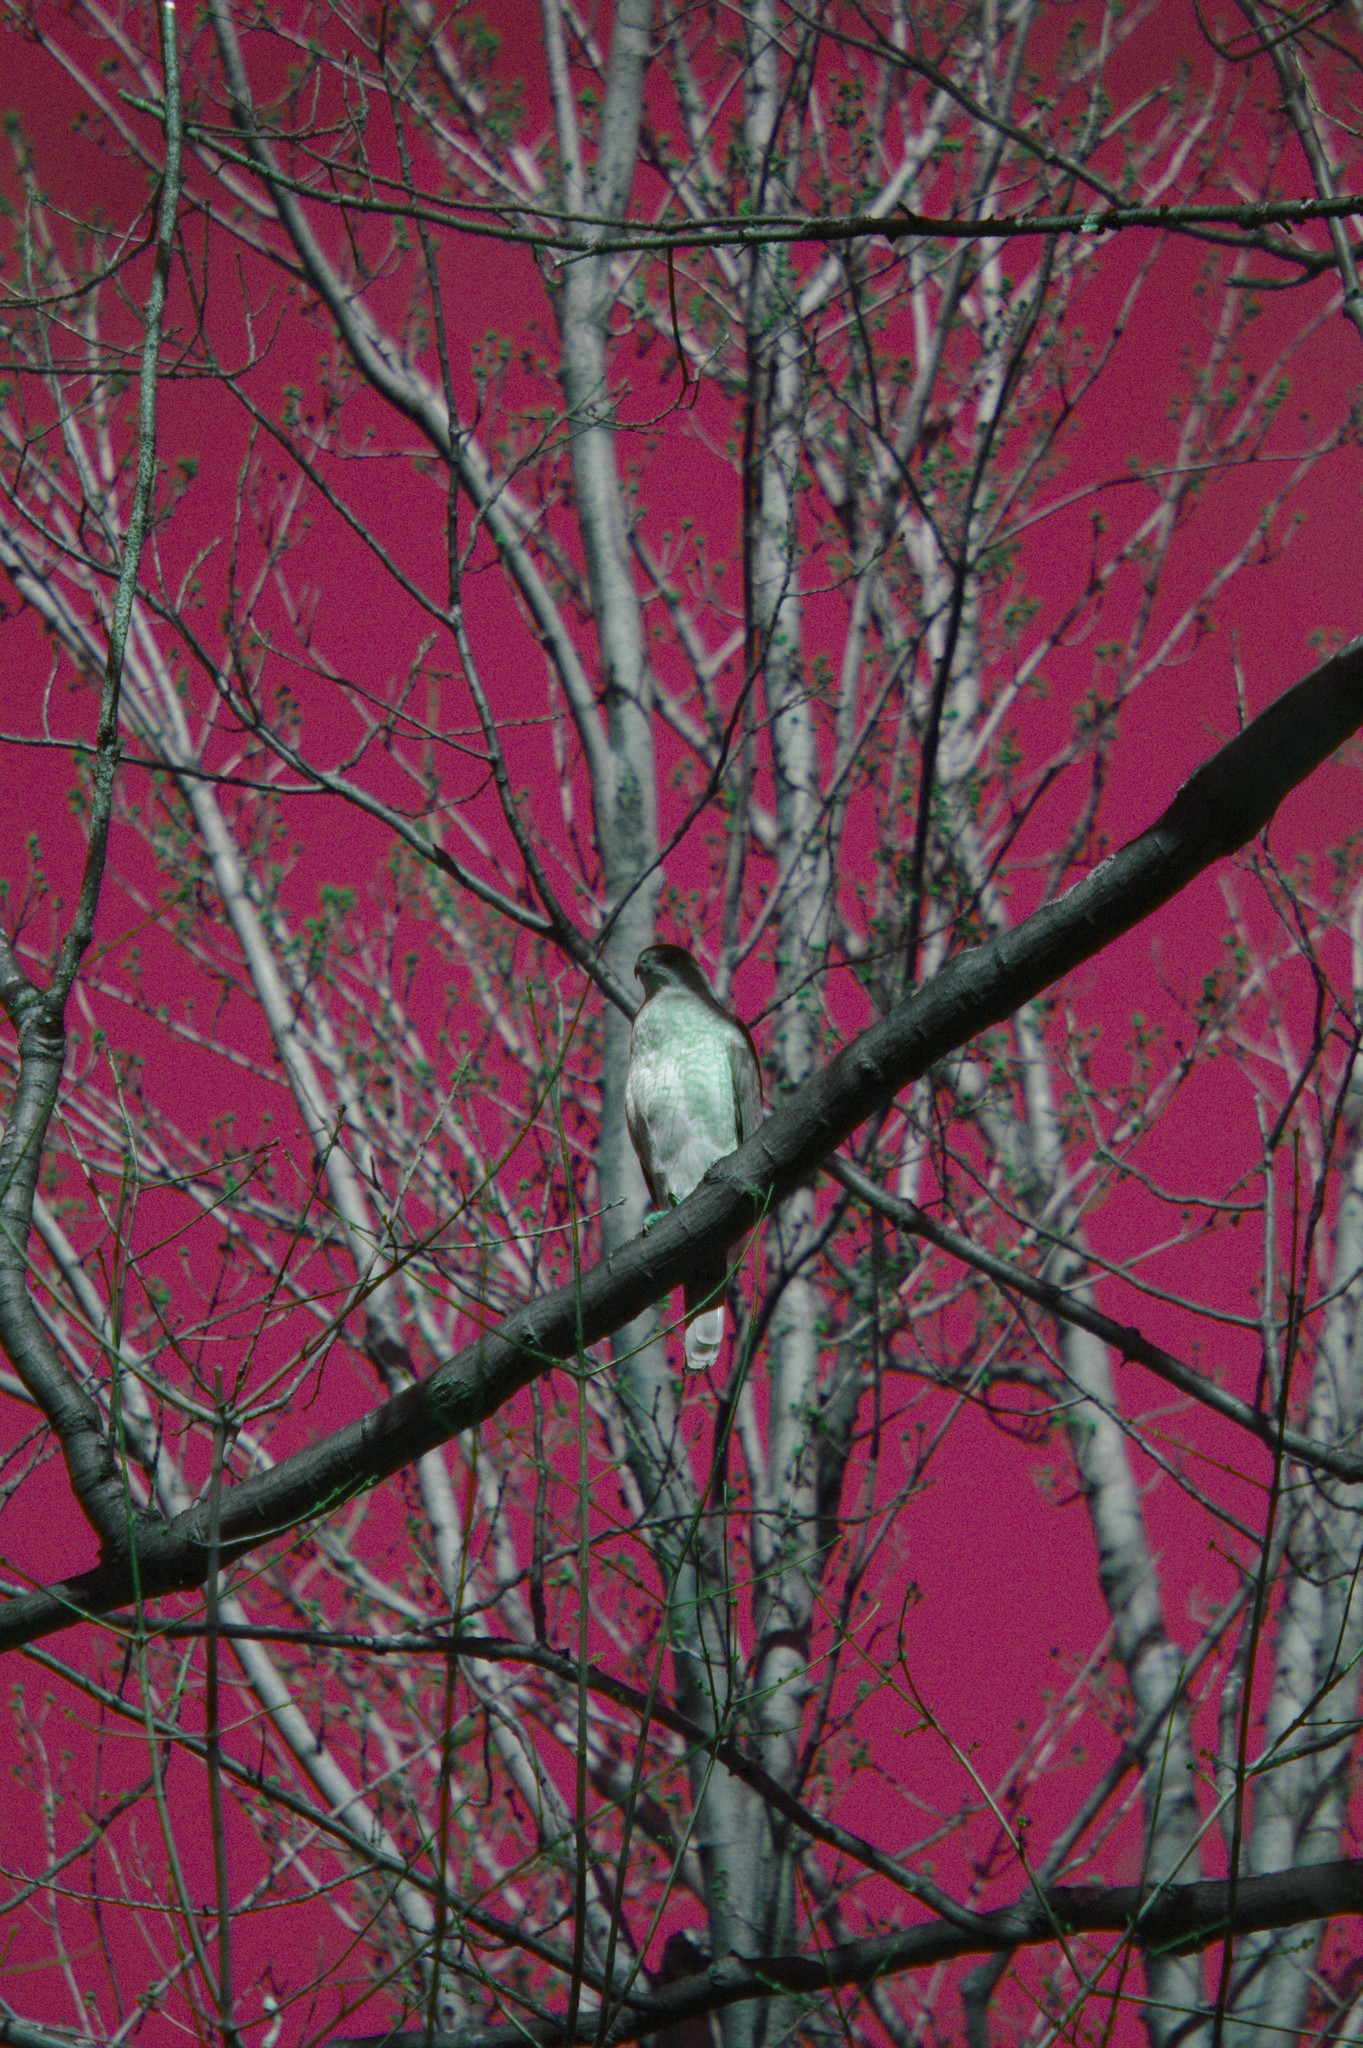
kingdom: Animalia
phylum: Chordata
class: Aves
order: Accipitriformes
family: Accipitridae
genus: Accipiter
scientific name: Accipiter cooperii
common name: Cooper's hawk
